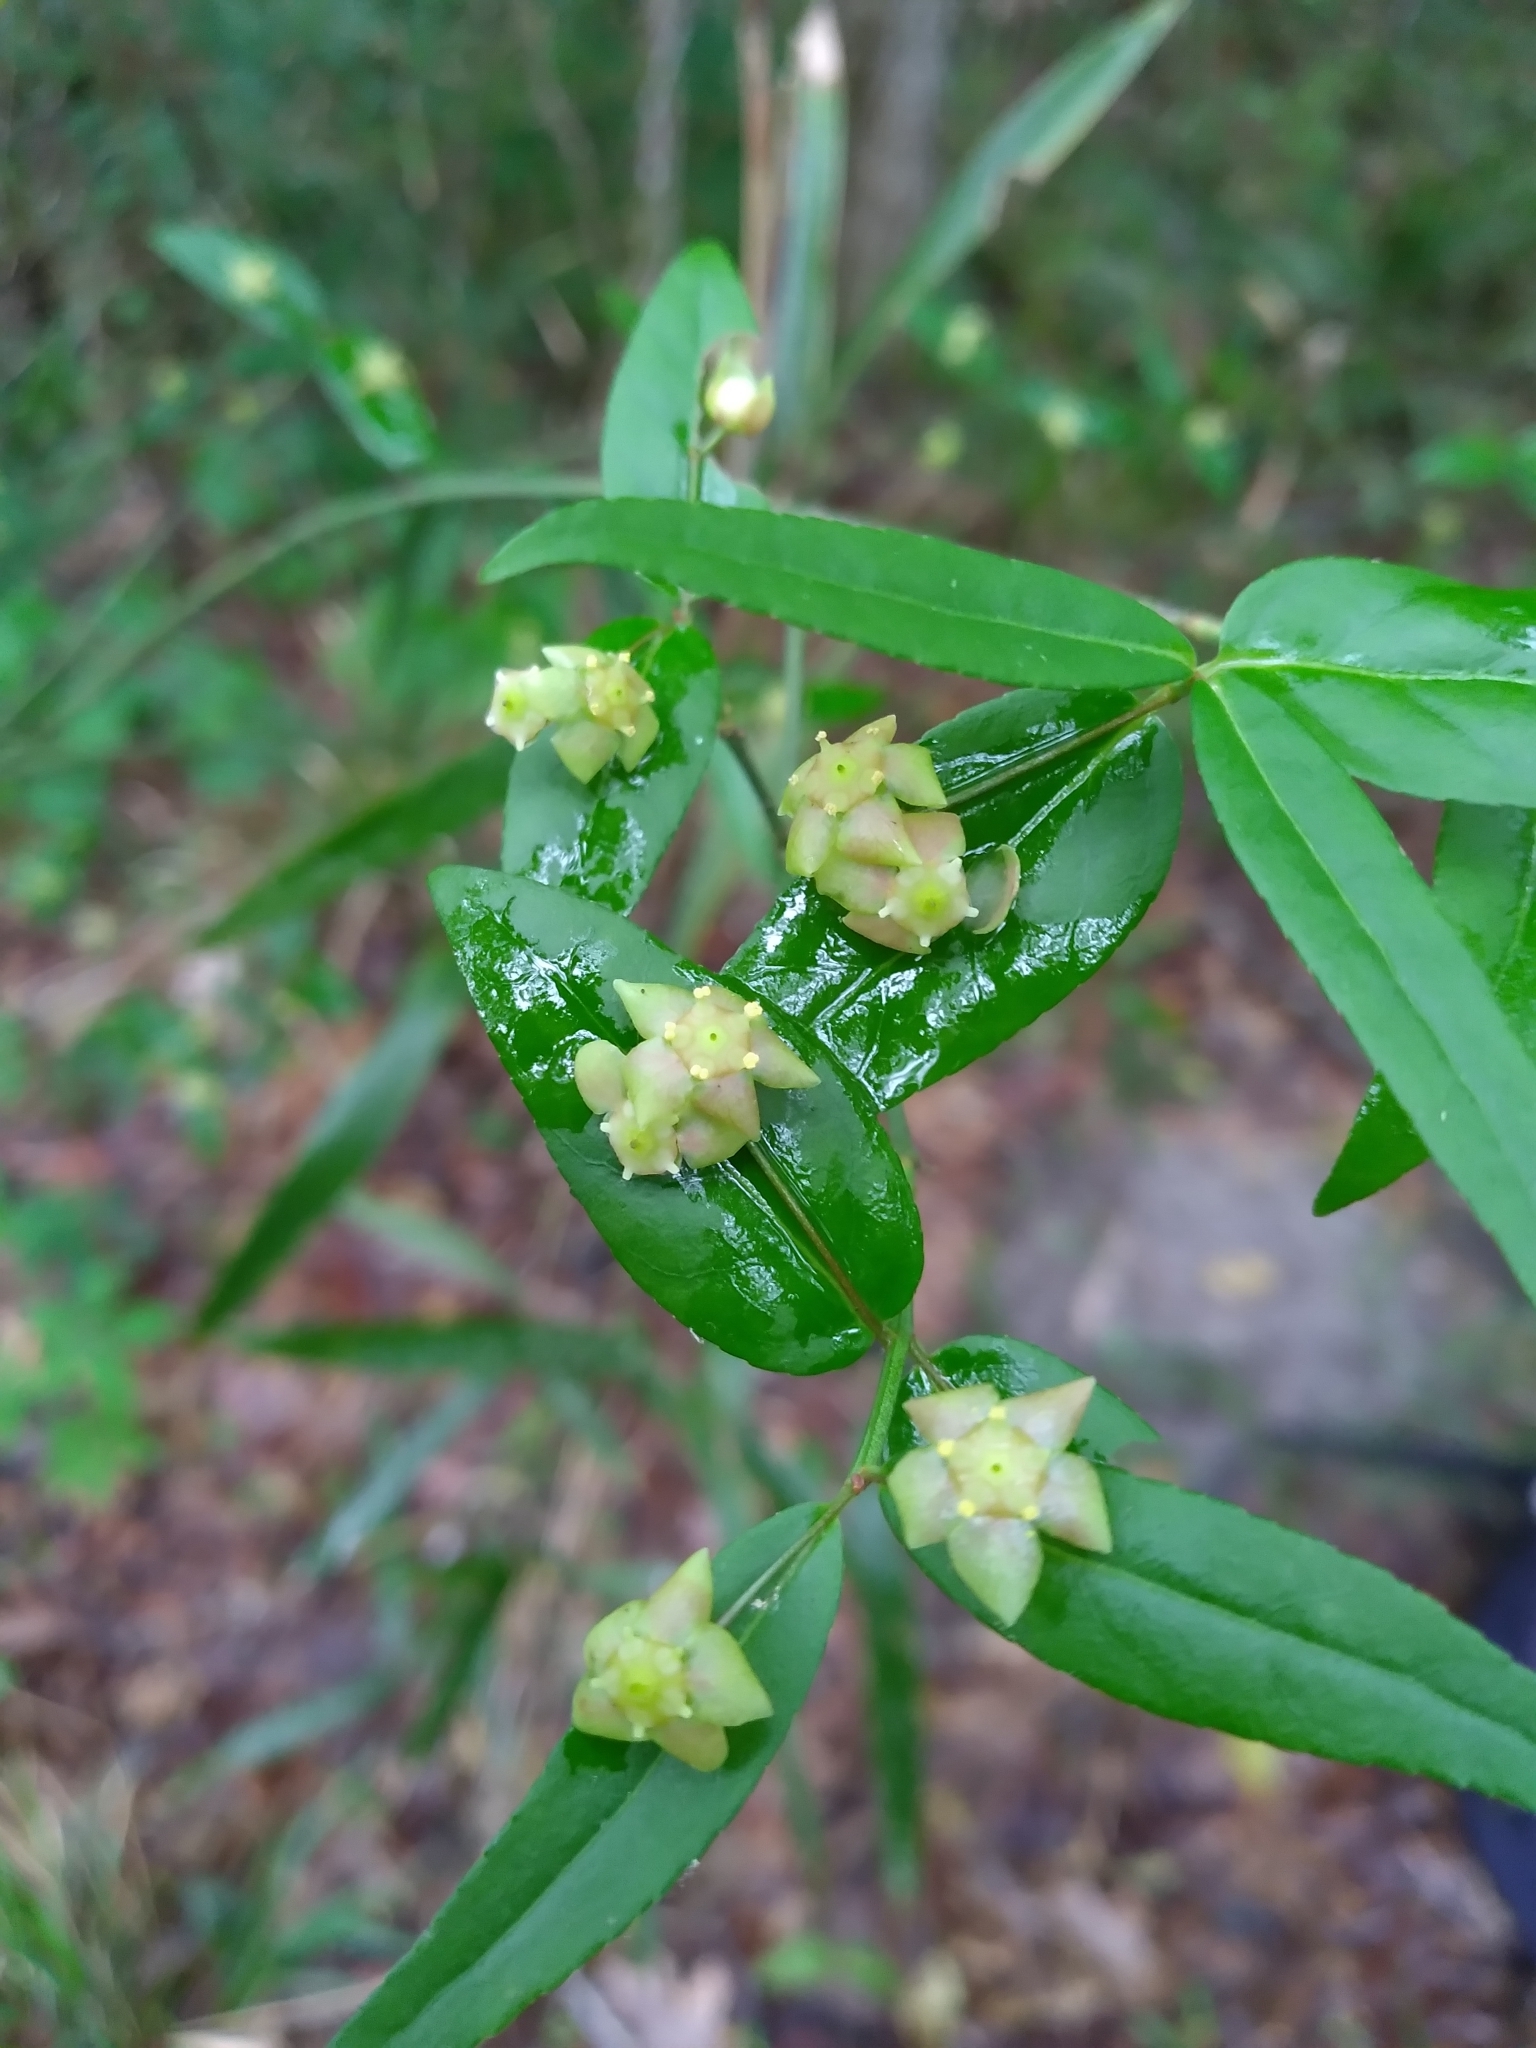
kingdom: Plantae
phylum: Tracheophyta
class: Magnoliopsida
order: Celastrales
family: Celastraceae
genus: Euonymus
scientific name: Euonymus americanus
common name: Bursting-heart
